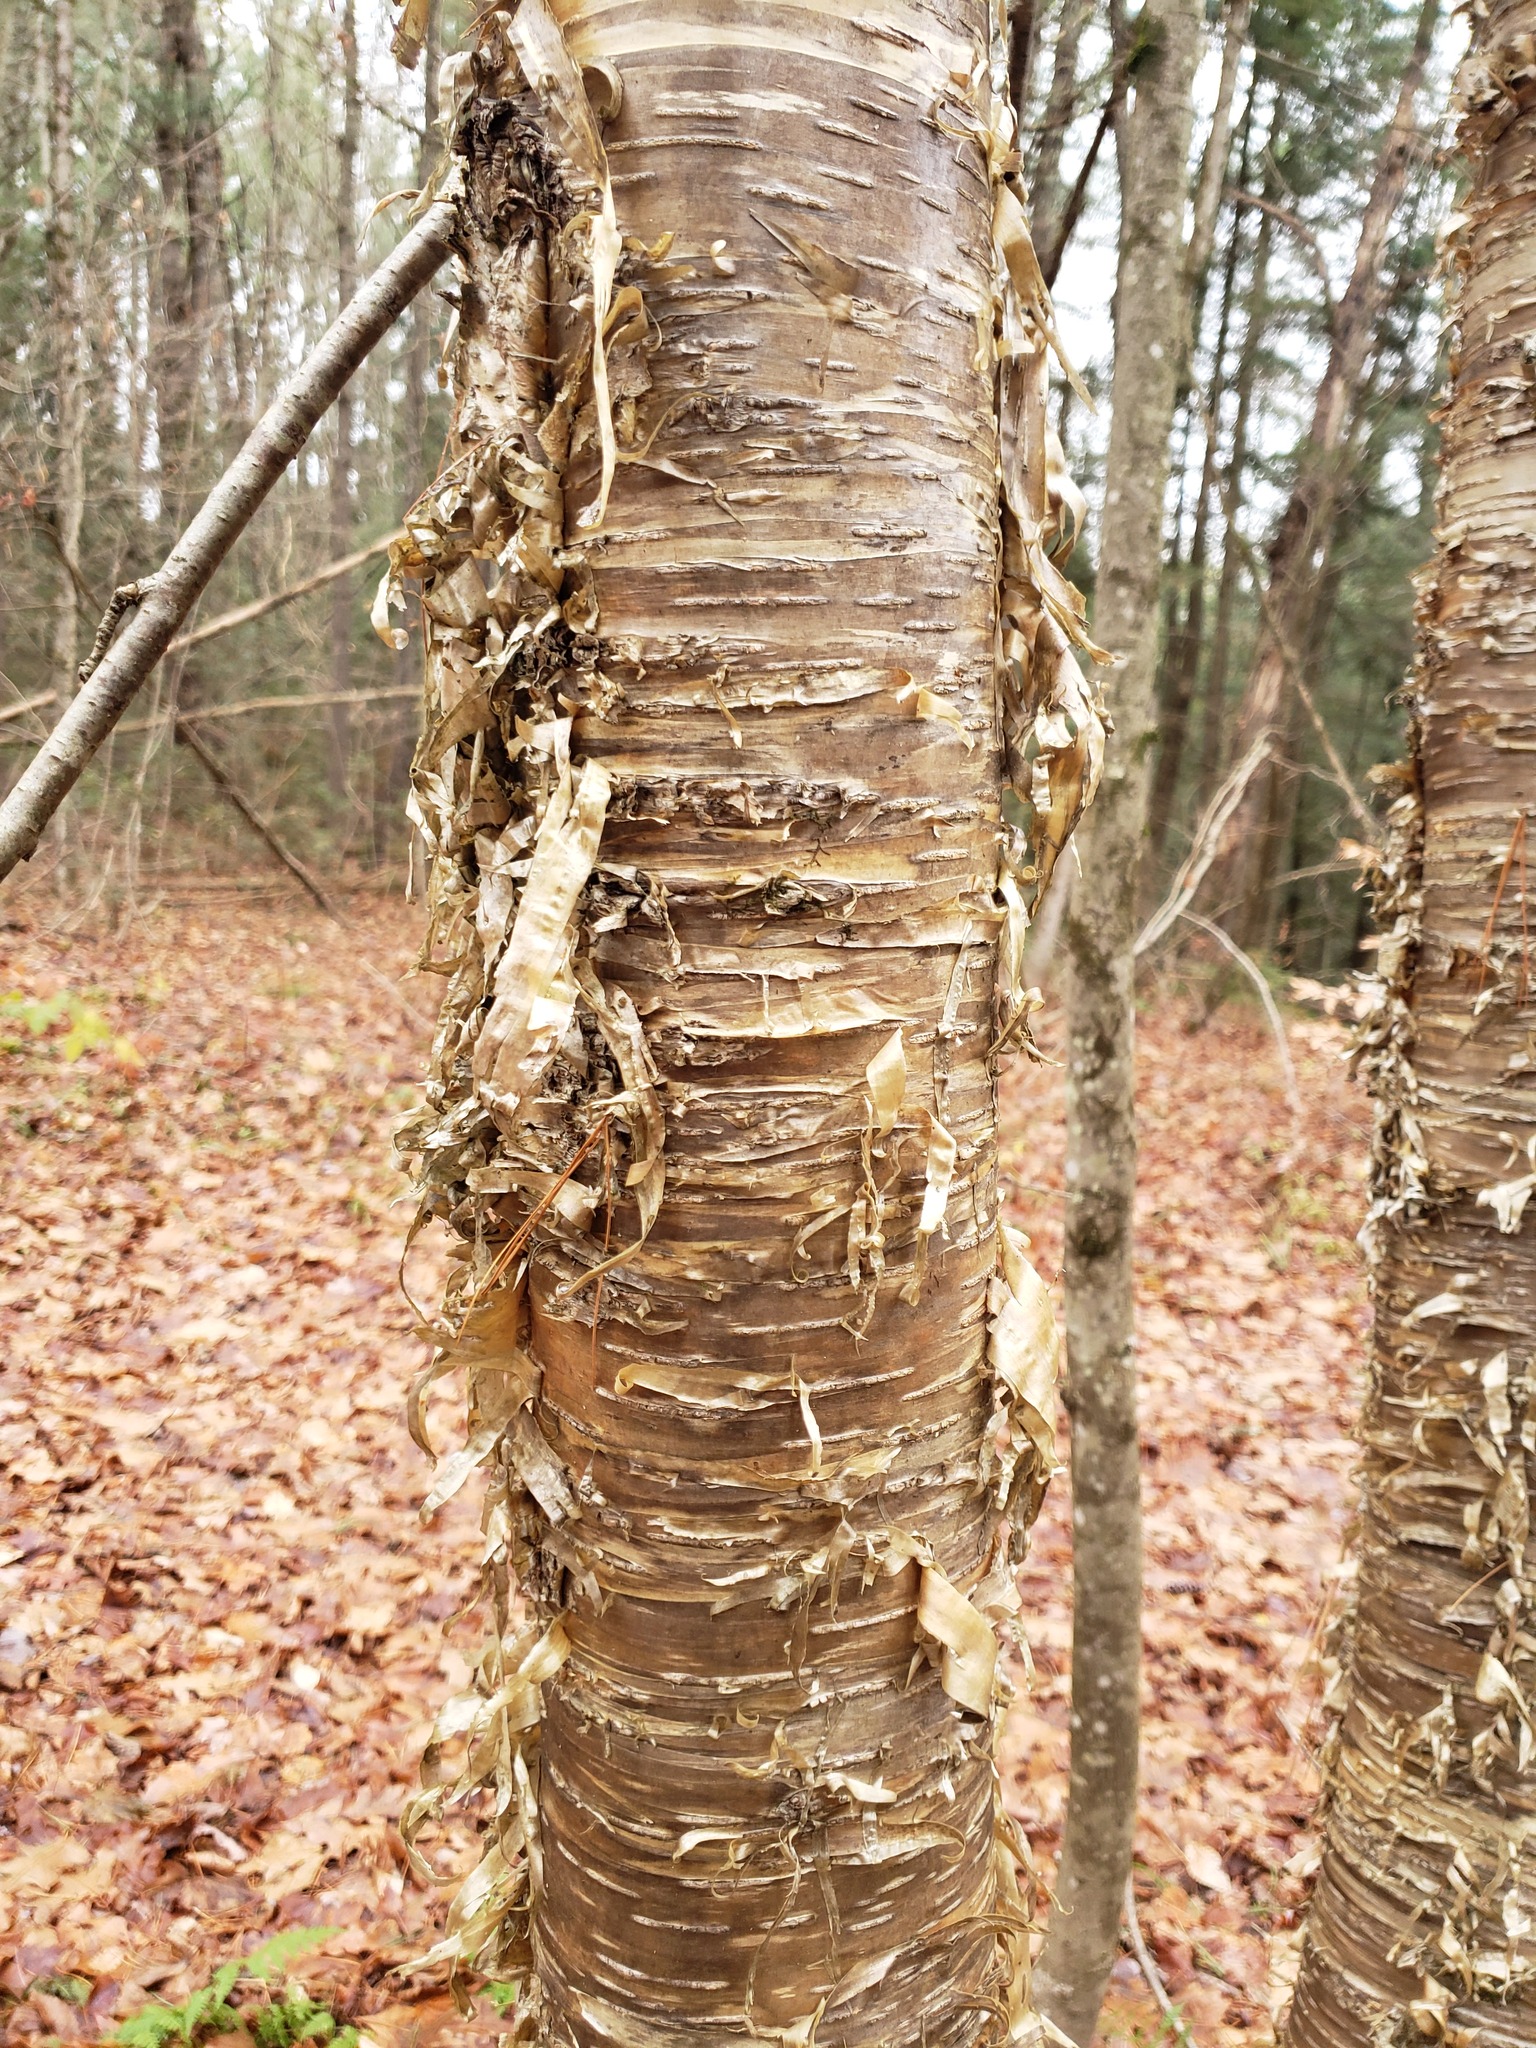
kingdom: Plantae
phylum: Tracheophyta
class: Magnoliopsida
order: Fagales
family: Betulaceae
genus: Betula
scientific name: Betula alleghaniensis
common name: Yellow birch
